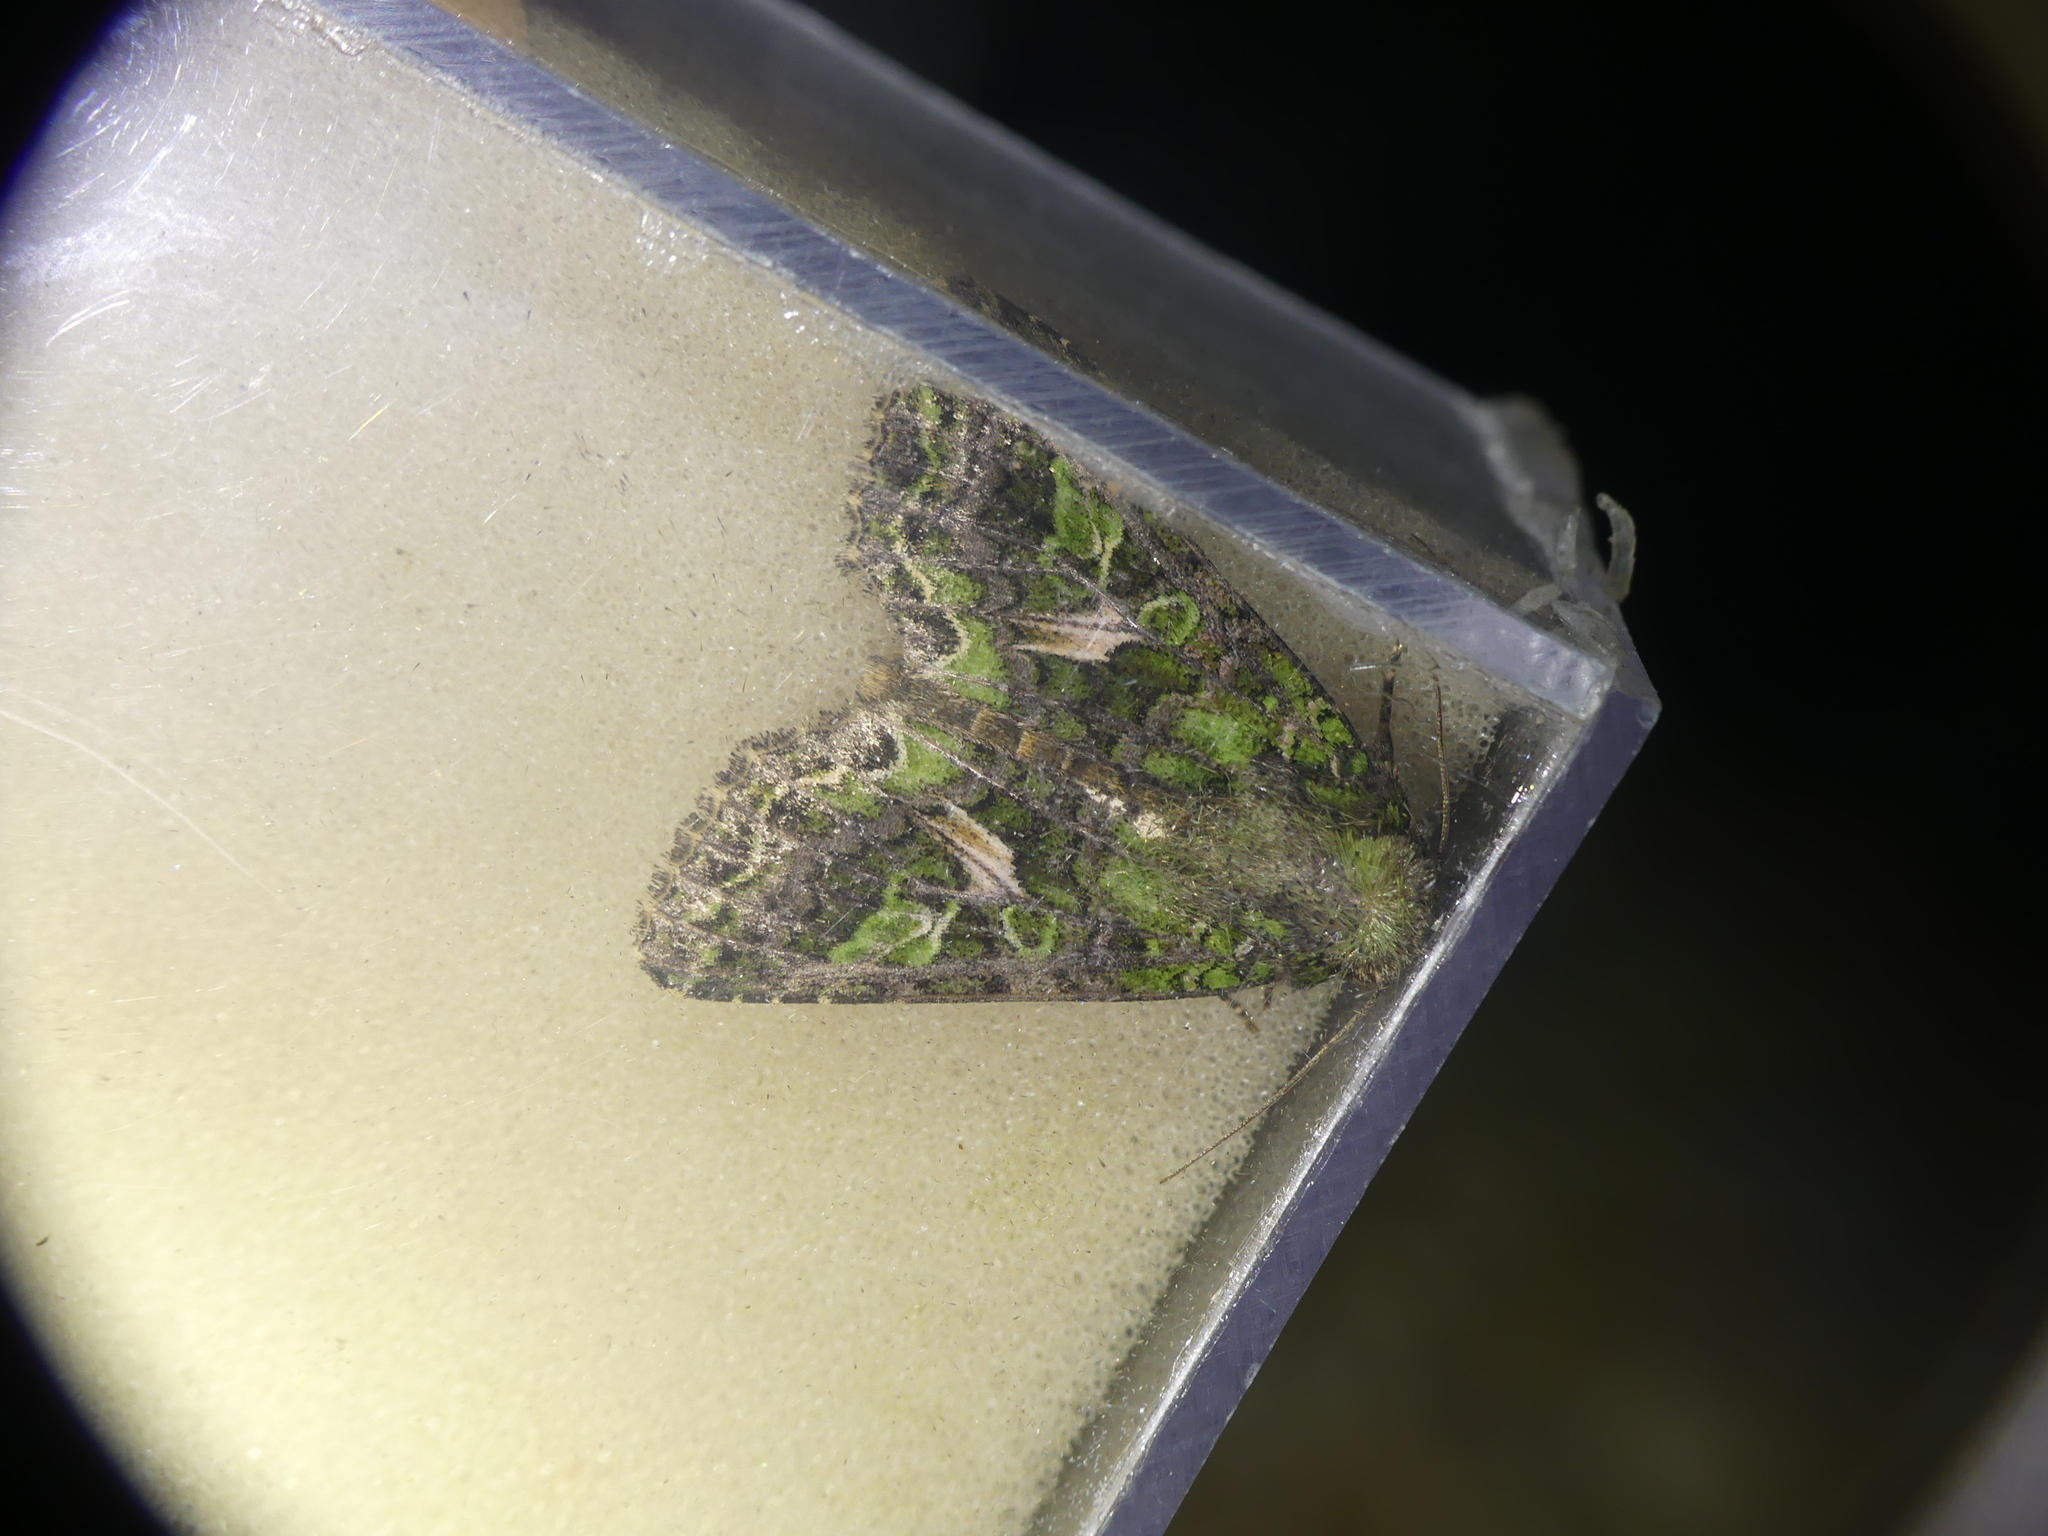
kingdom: Animalia
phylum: Arthropoda
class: Insecta
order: Lepidoptera
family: Noctuidae
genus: Trachea
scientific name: Trachea atriplicis
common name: Orache moth
